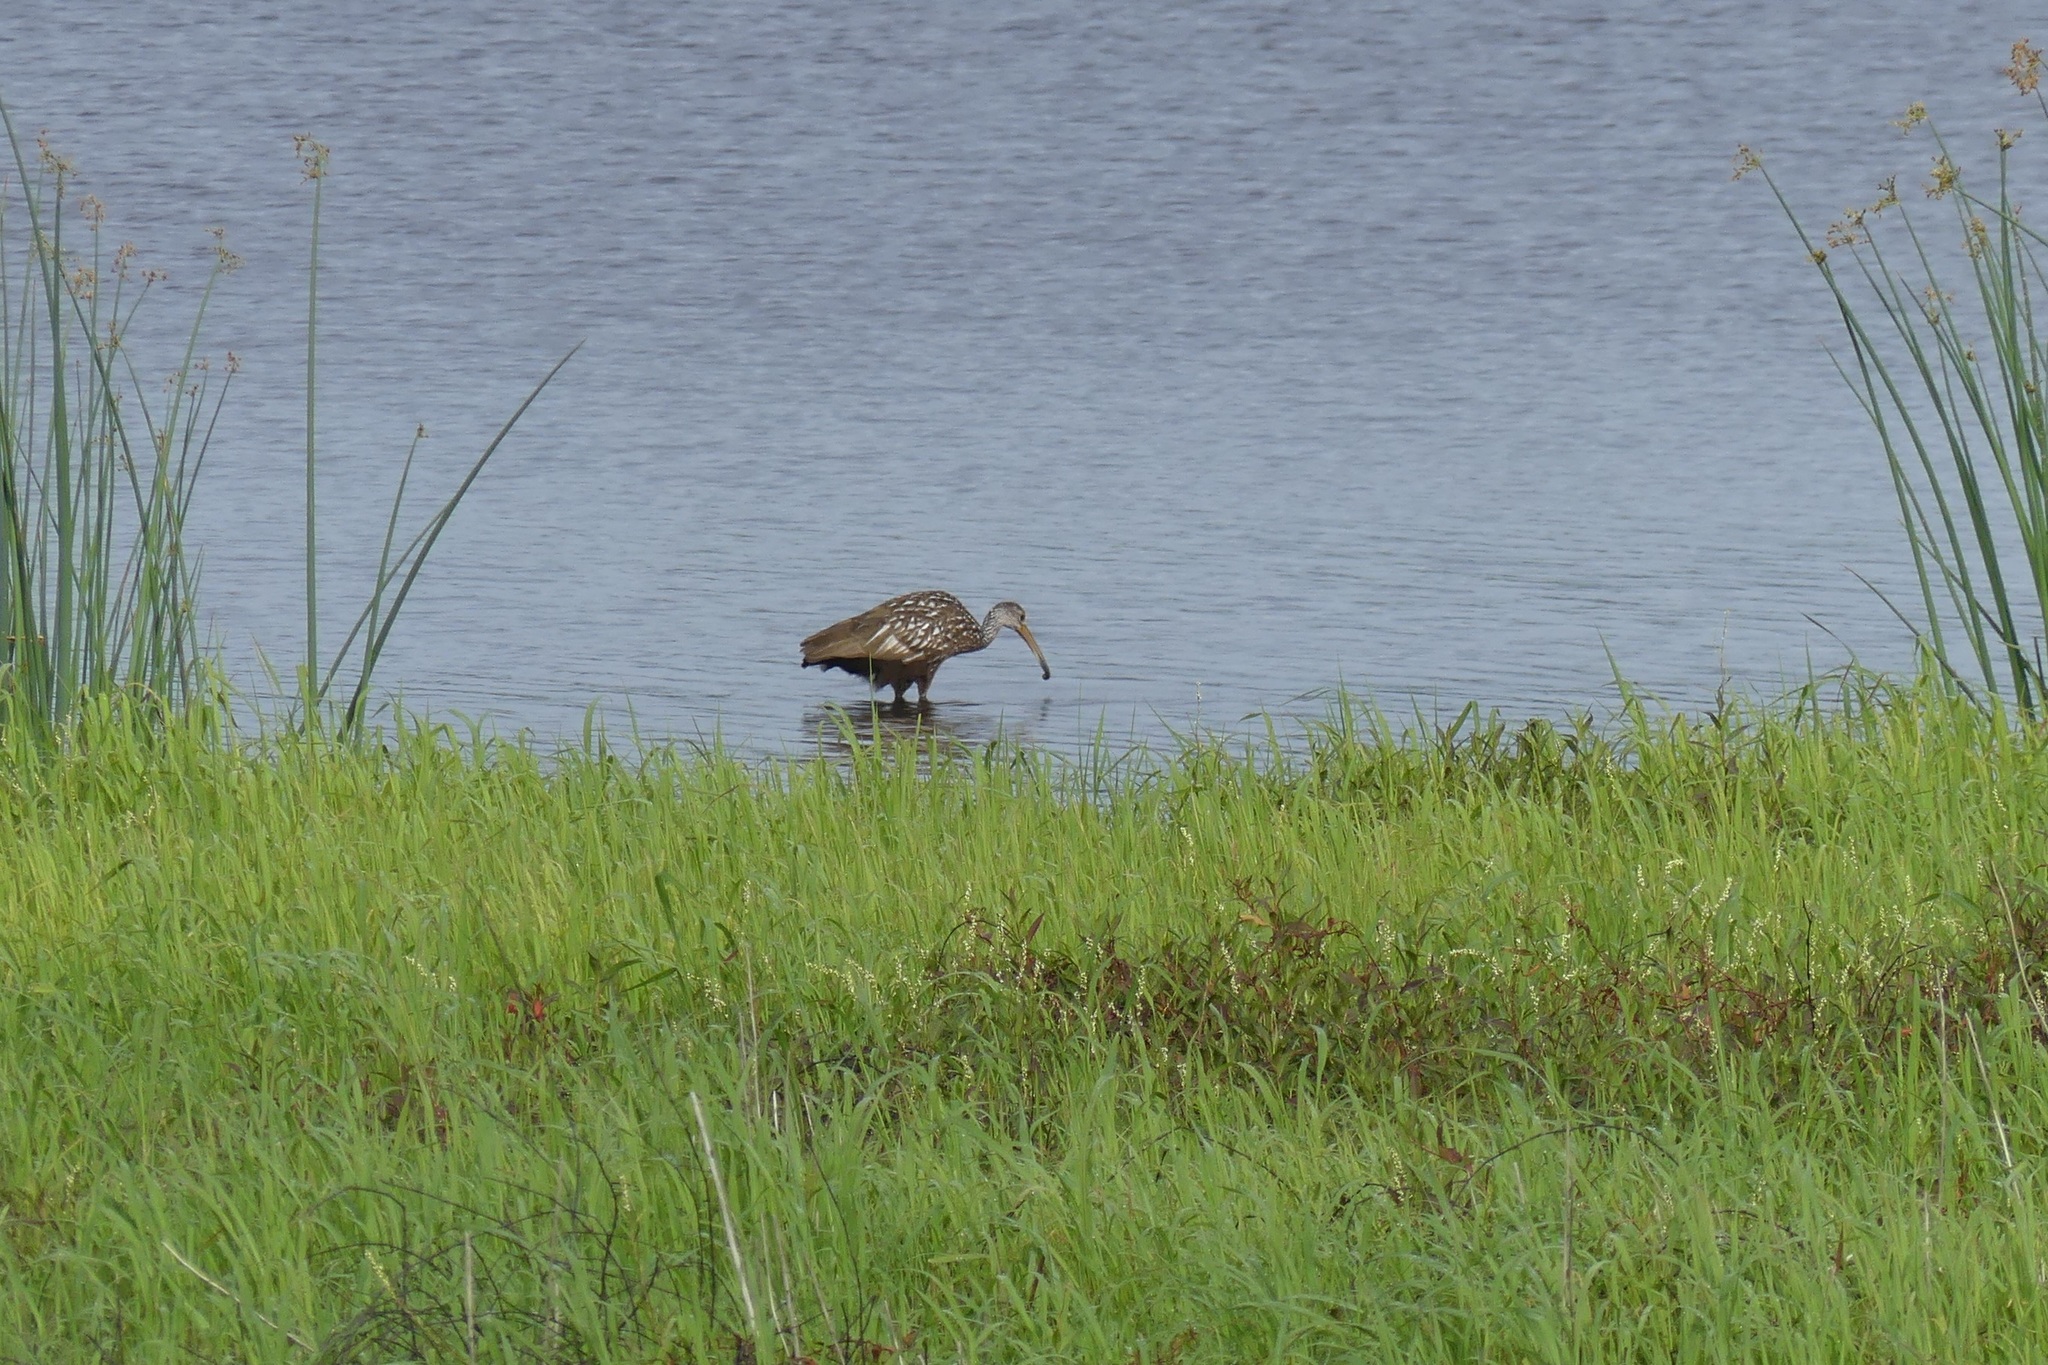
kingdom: Animalia
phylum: Chordata
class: Aves
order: Gruiformes
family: Aramidae
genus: Aramus
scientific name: Aramus guarauna
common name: Limpkin
